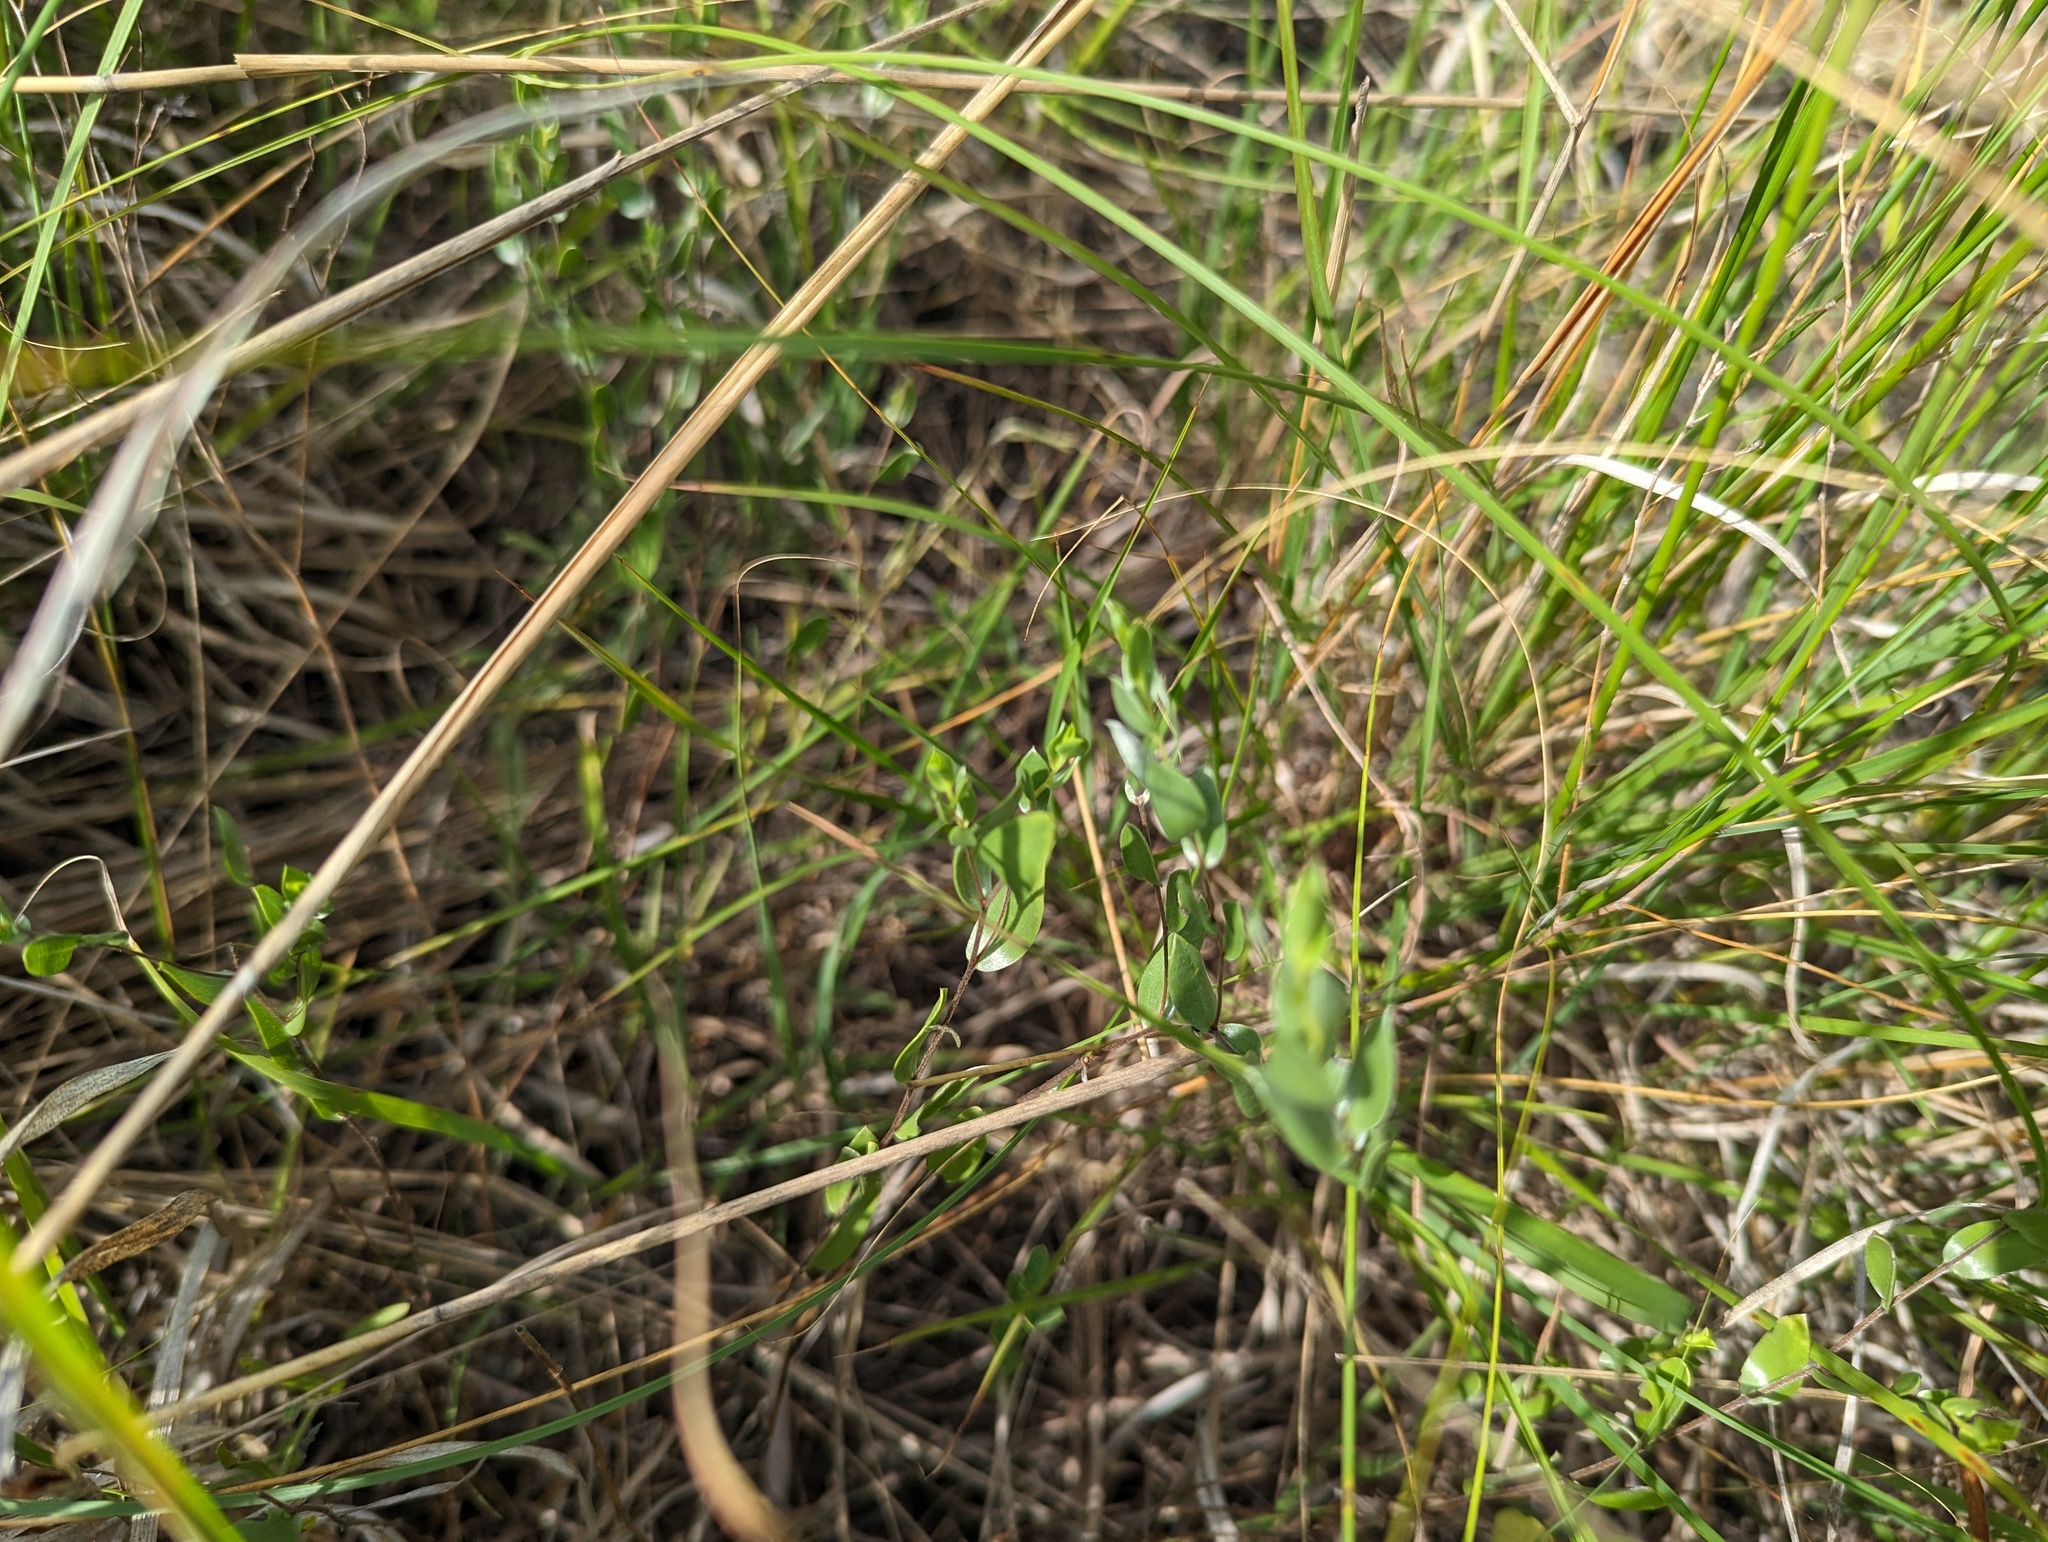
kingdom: Plantae
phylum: Tracheophyta
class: Magnoliopsida
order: Asterales
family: Asteraceae
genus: Symphyotrichum
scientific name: Symphyotrichum sericeum
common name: Silky aster
